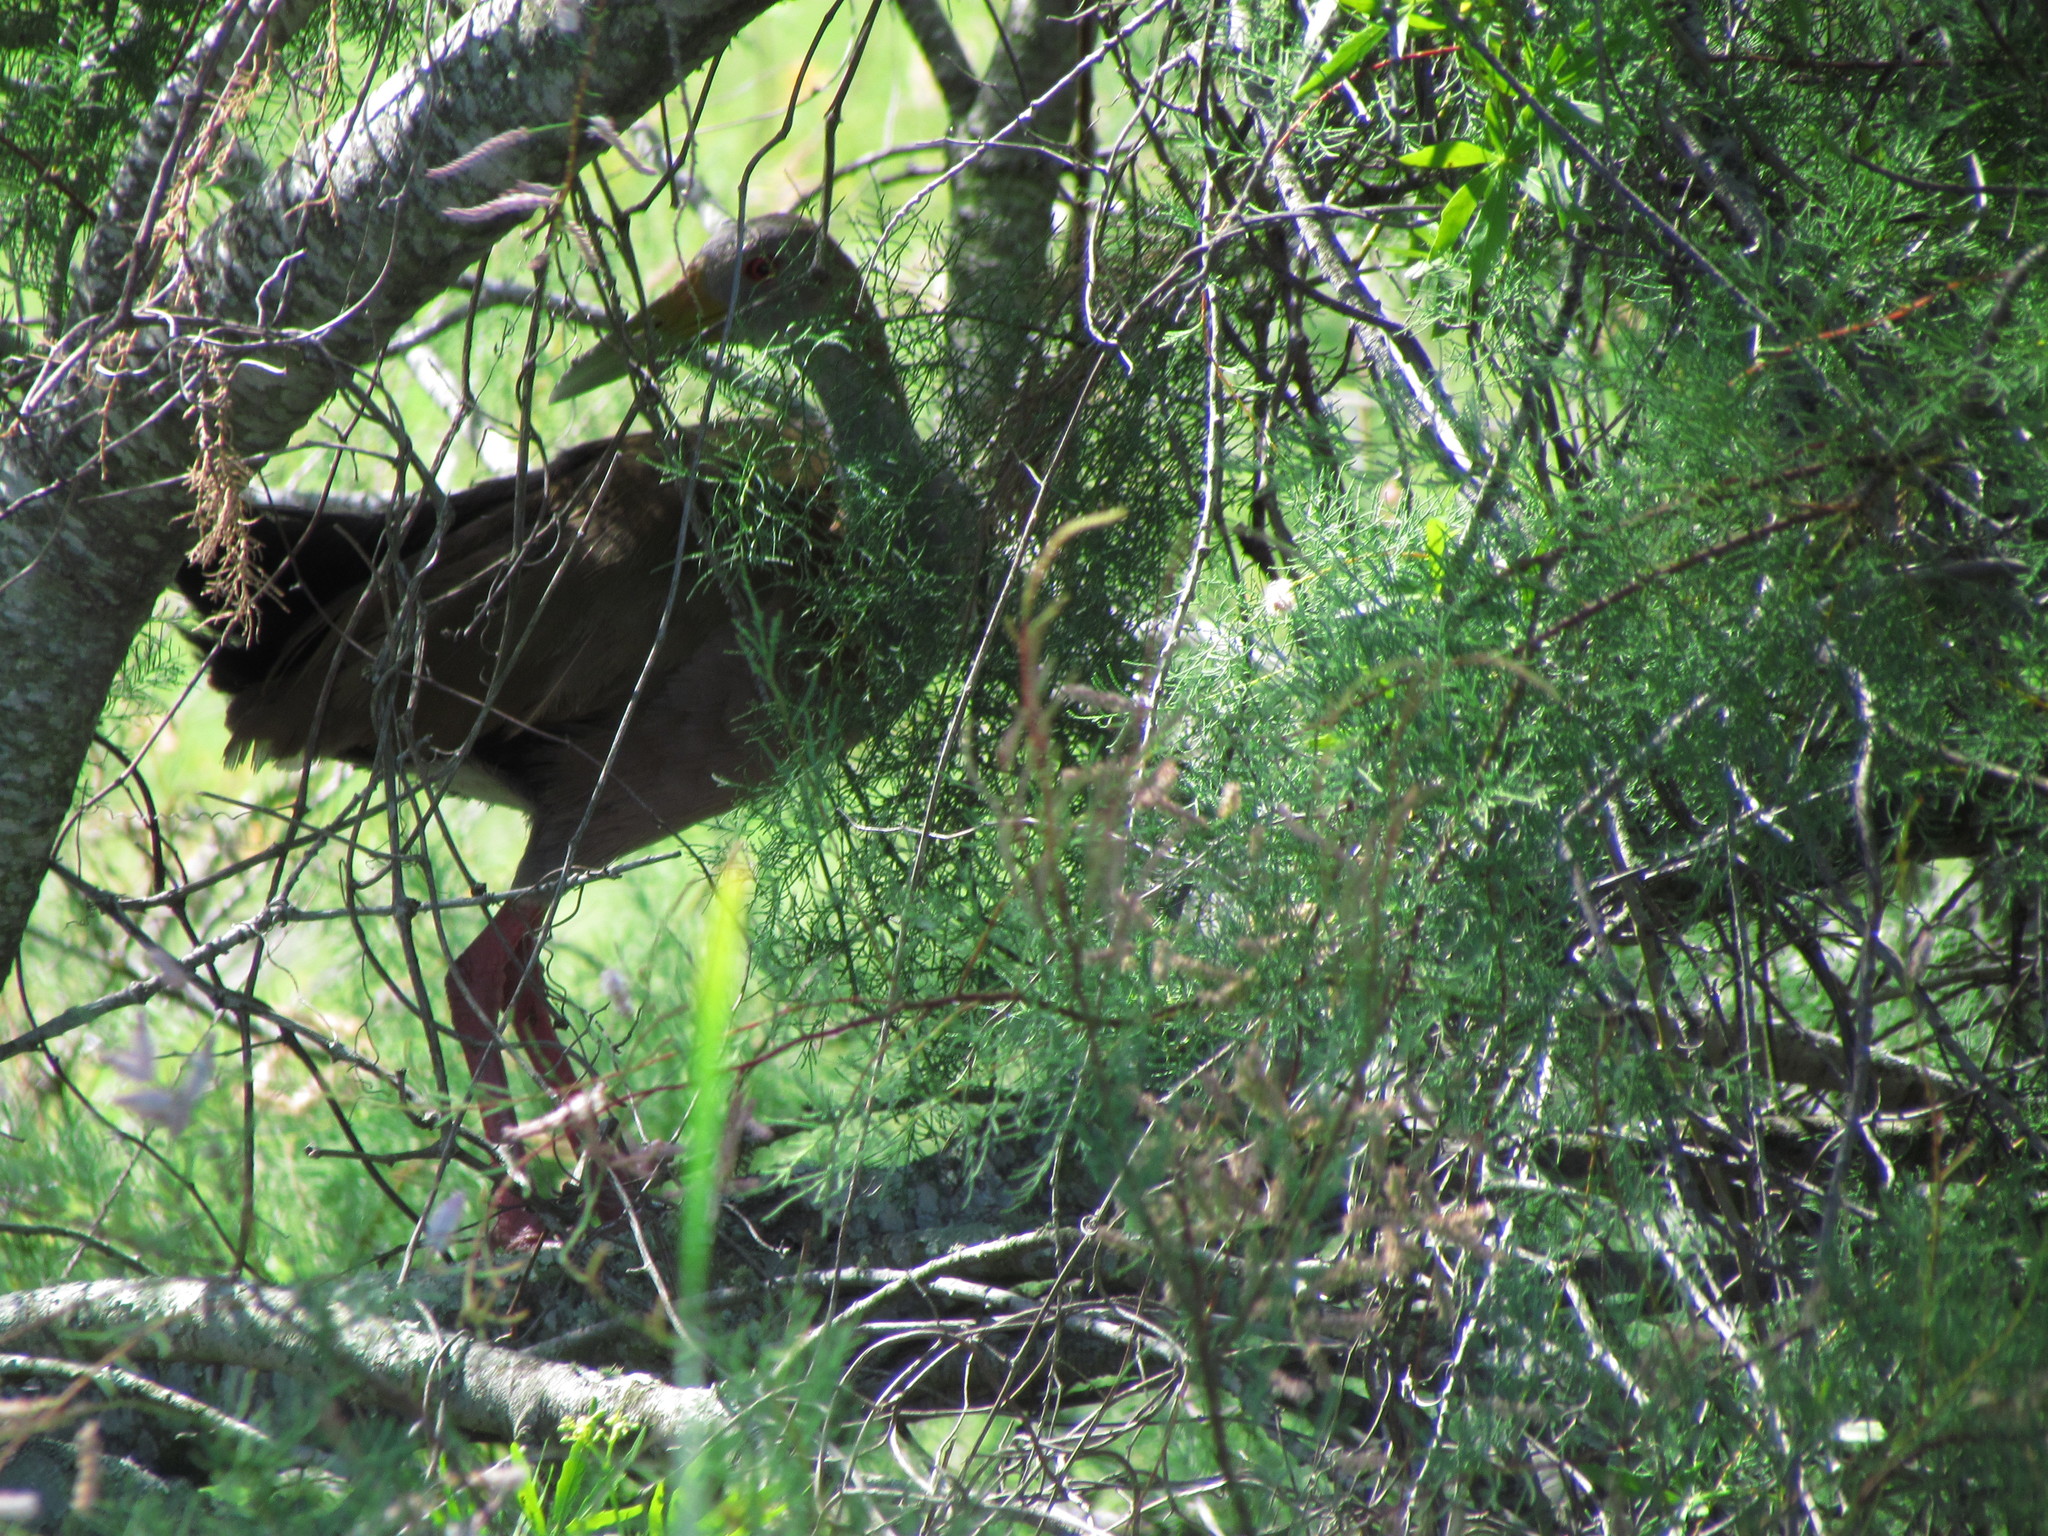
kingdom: Animalia
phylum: Chordata
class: Aves
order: Gruiformes
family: Rallidae
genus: Aramides
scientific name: Aramides ypecaha
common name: Giant wood rail
